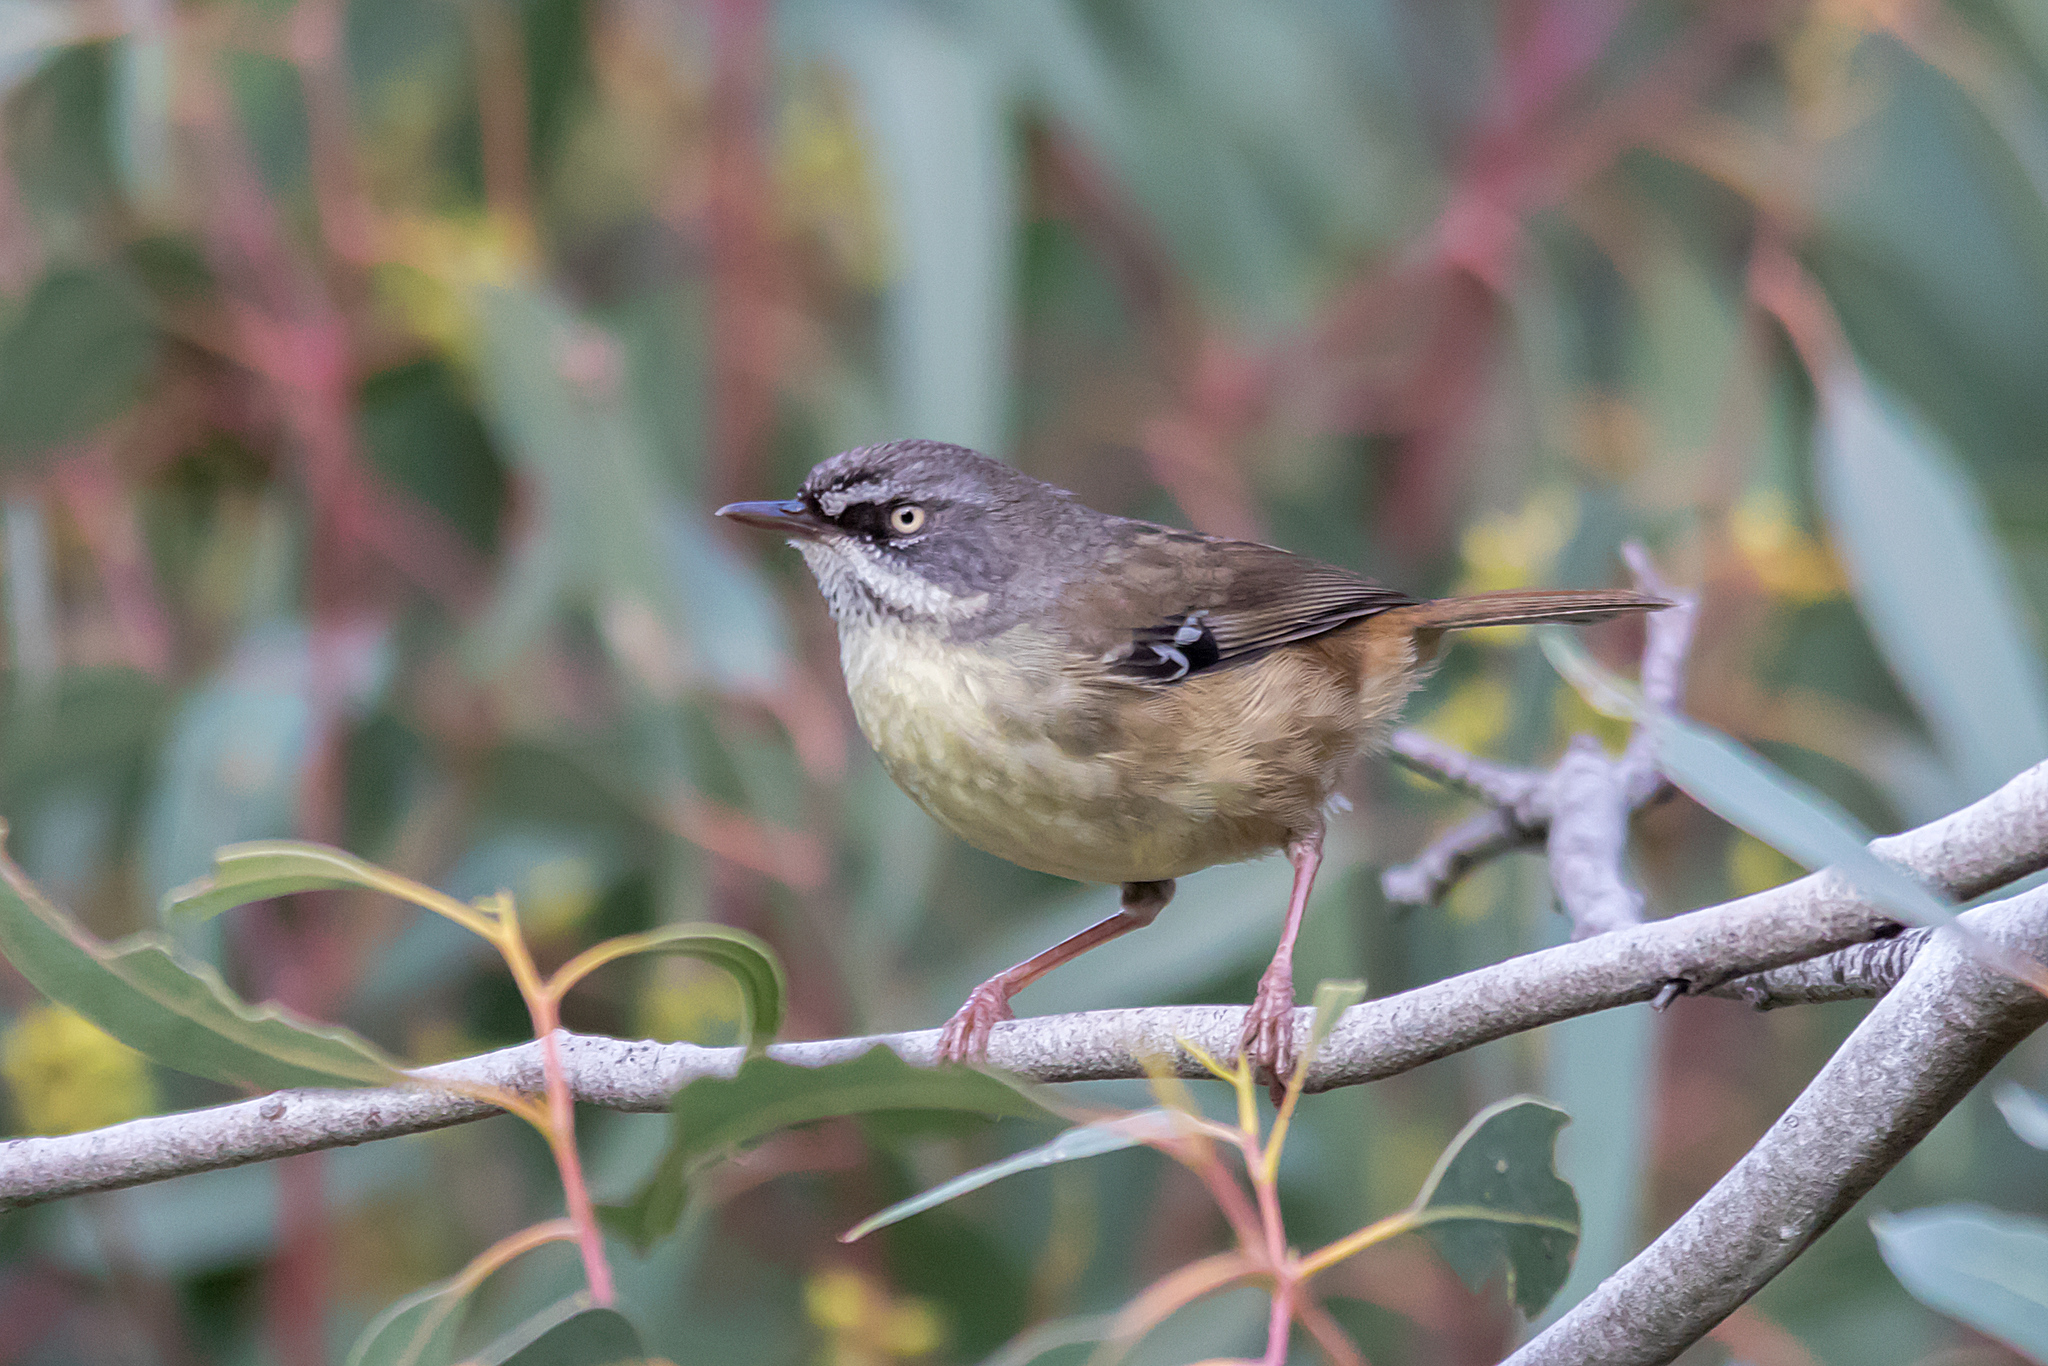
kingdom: Animalia
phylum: Chordata
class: Aves
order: Passeriformes
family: Acanthizidae
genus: Sericornis
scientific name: Sericornis frontalis
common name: White-browed scrubwren
